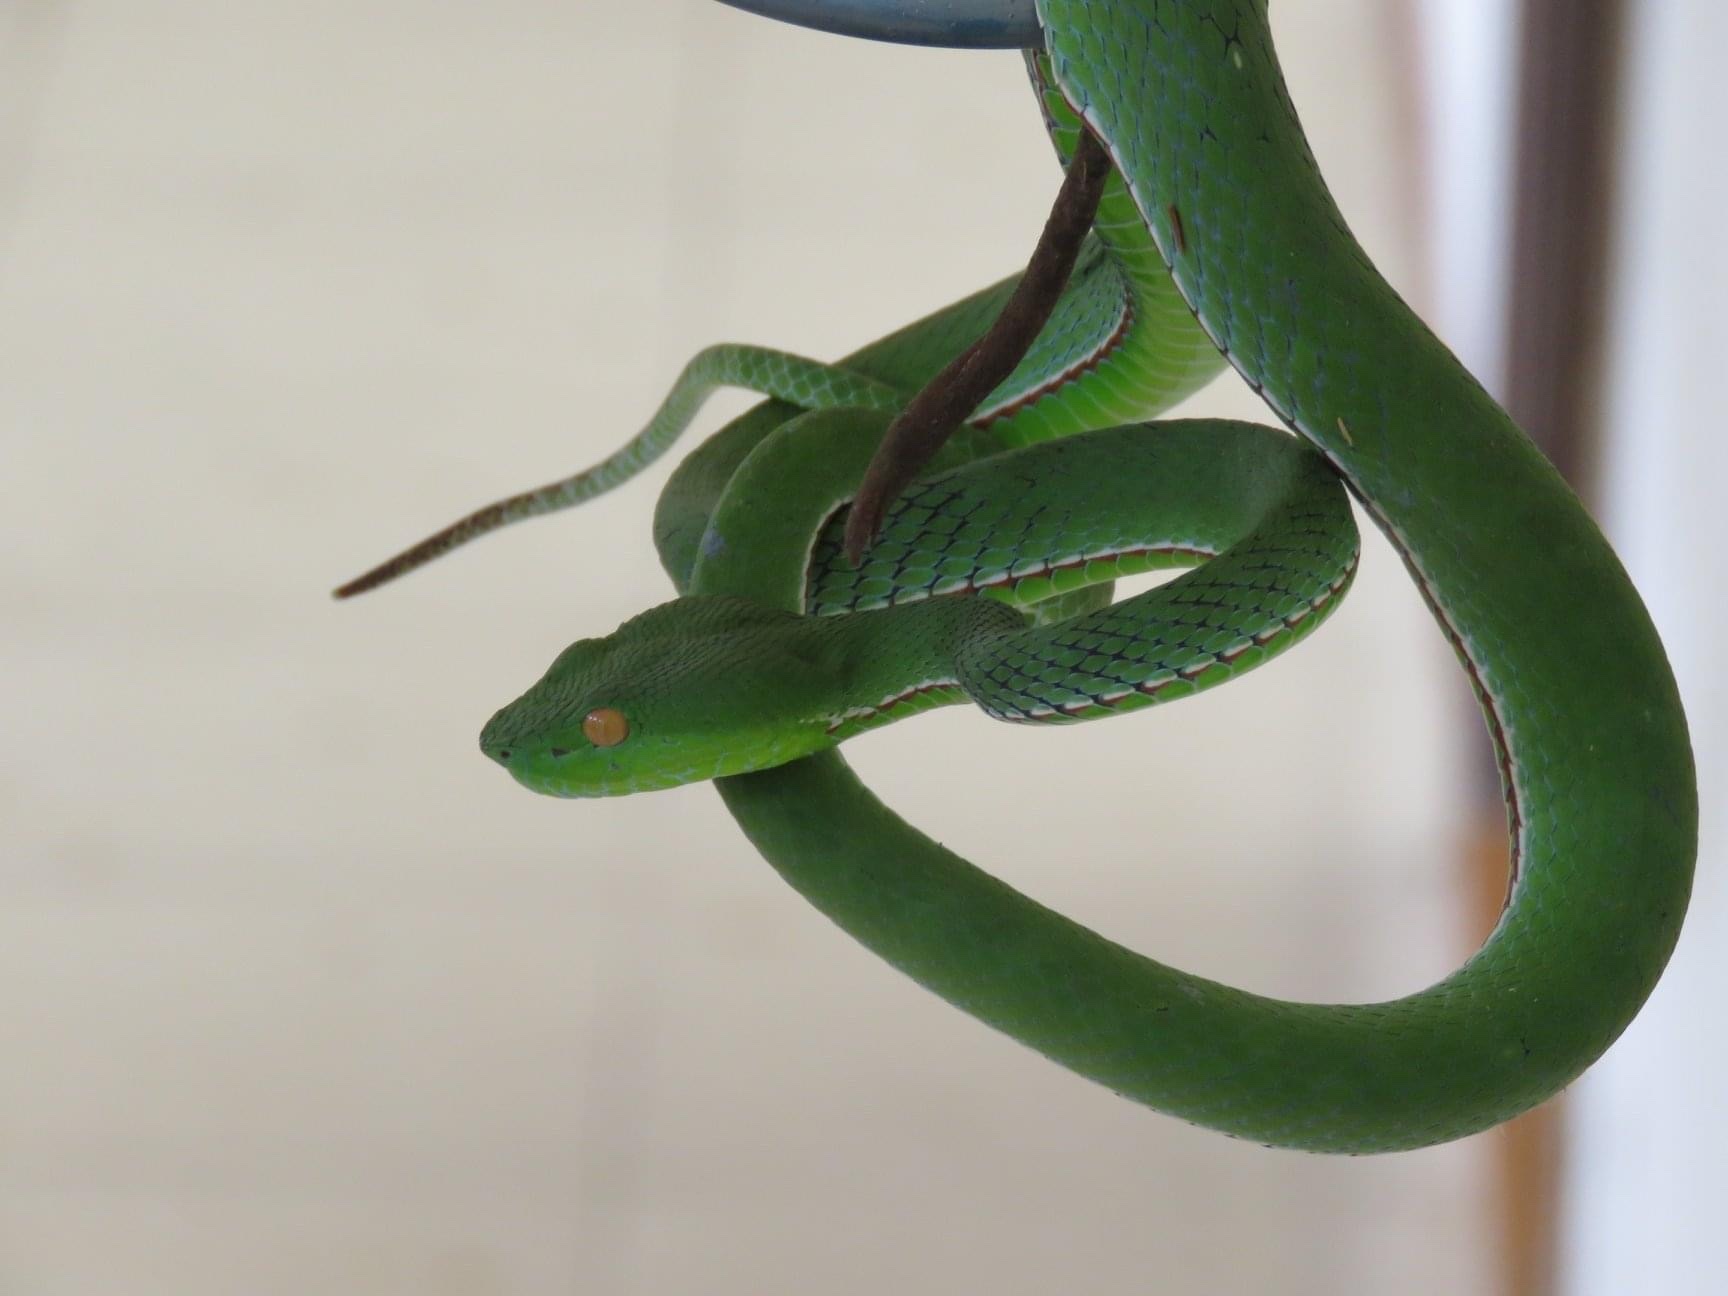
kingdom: Animalia
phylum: Chordata
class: Squamata
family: Viperidae
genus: Trimeresurus
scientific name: Trimeresurus vogeli
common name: Vogel's pit viper
